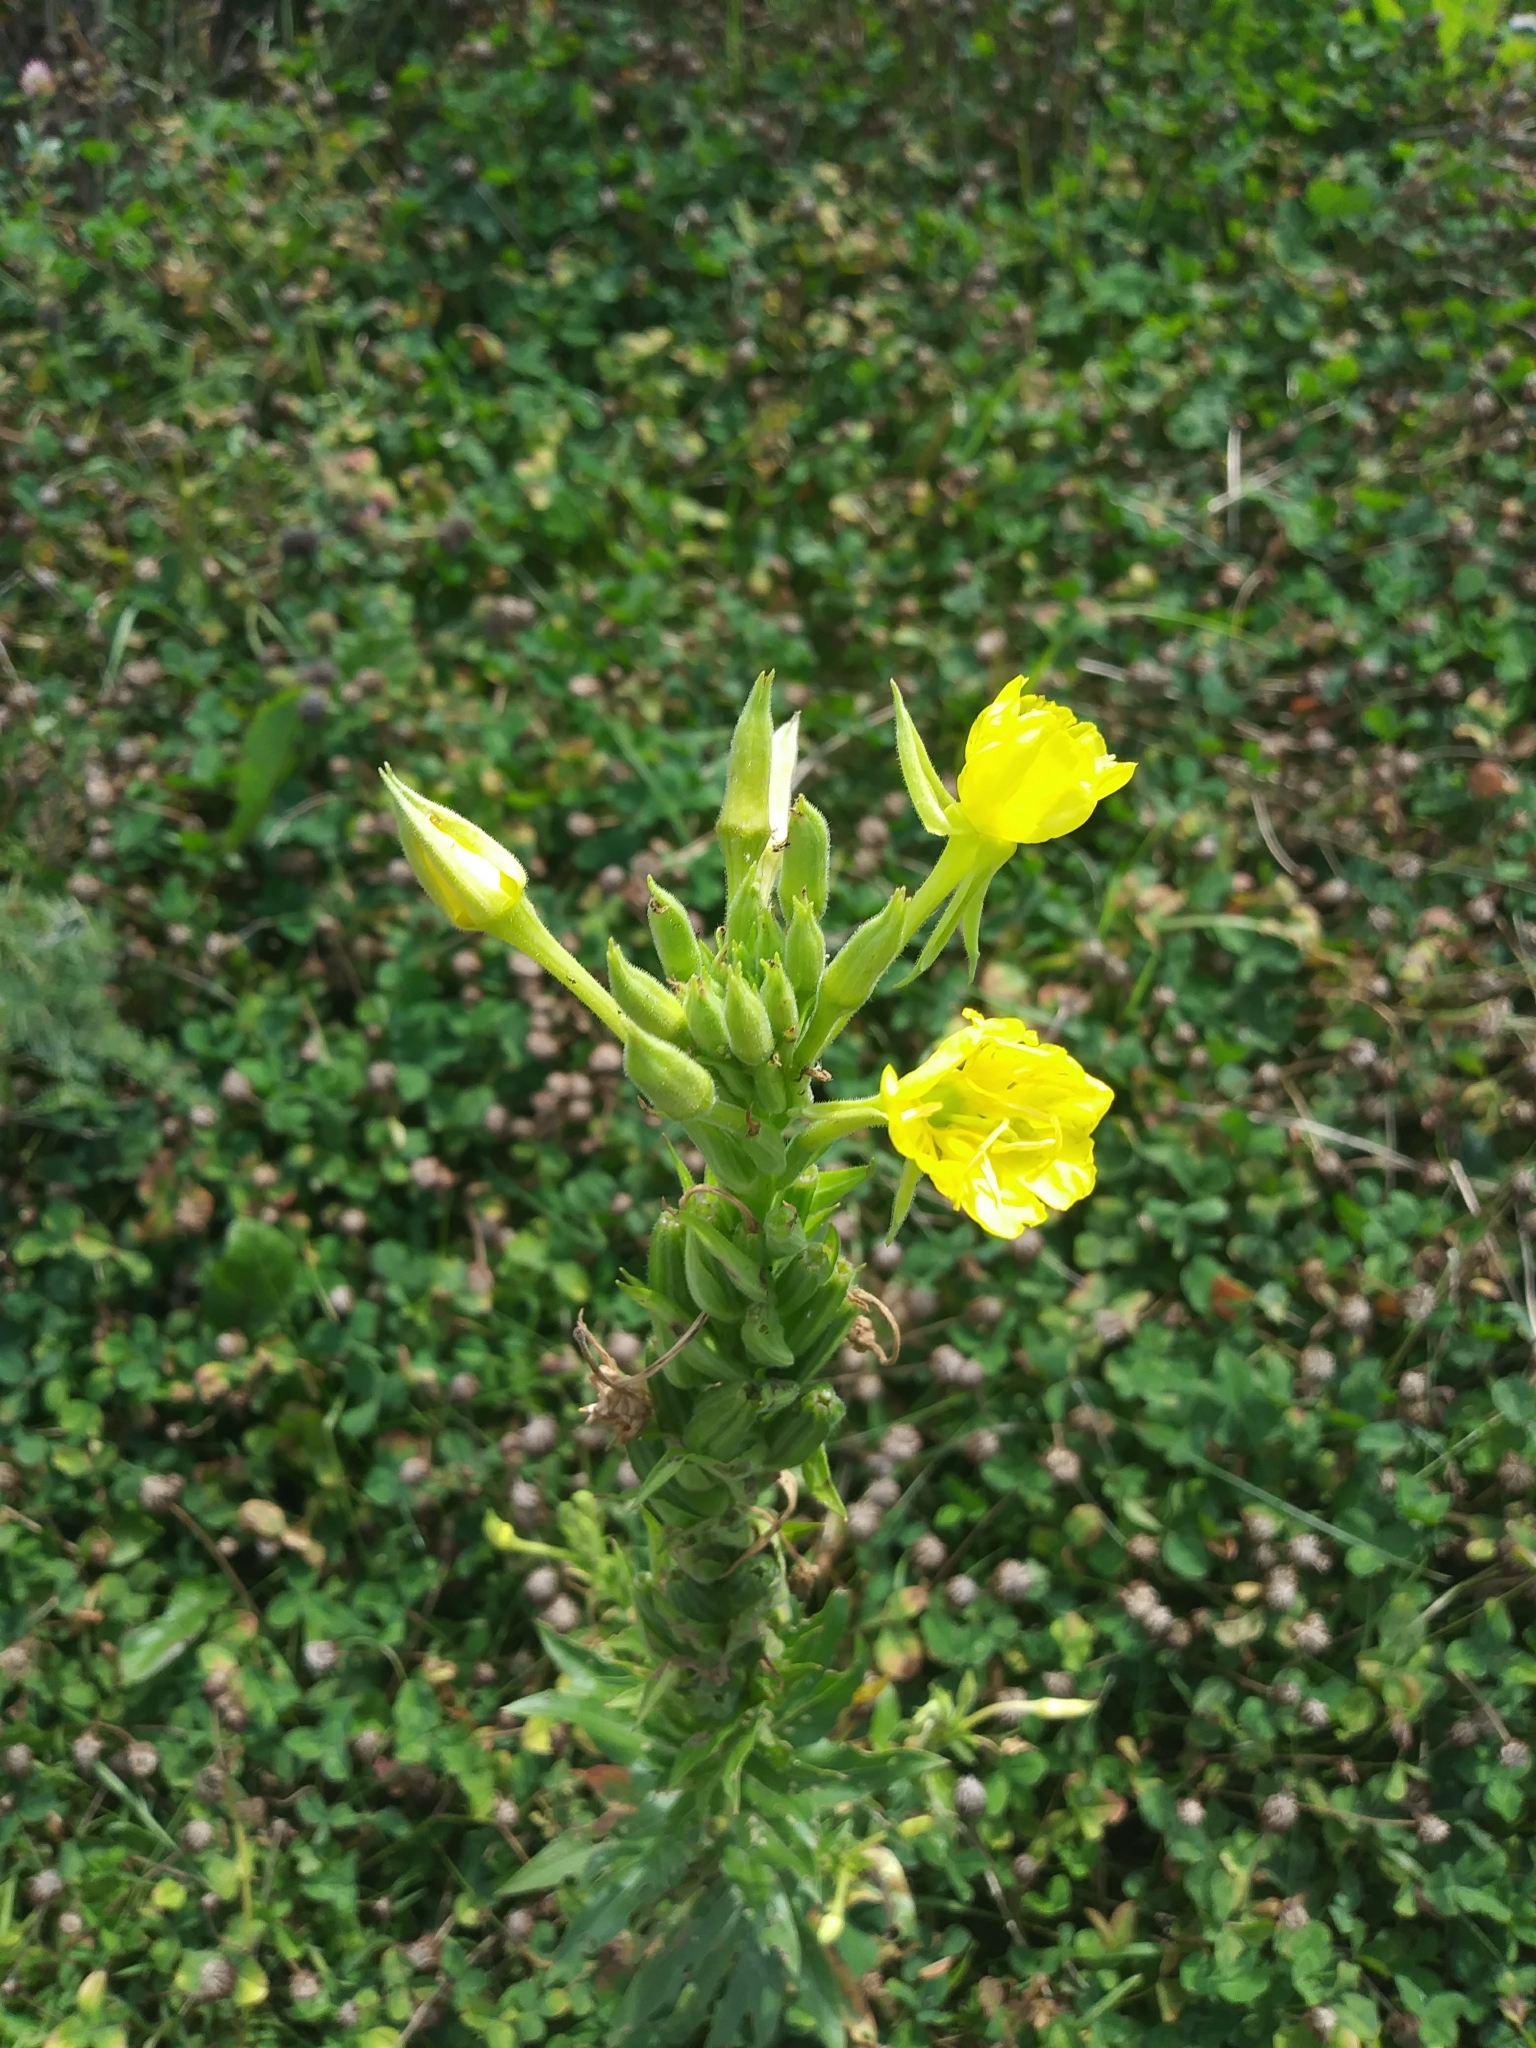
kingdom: Plantae
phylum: Tracheophyta
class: Magnoliopsida
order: Myrtales
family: Onagraceae
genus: Oenothera
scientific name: Oenothera biennis
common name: Common evening-primrose
